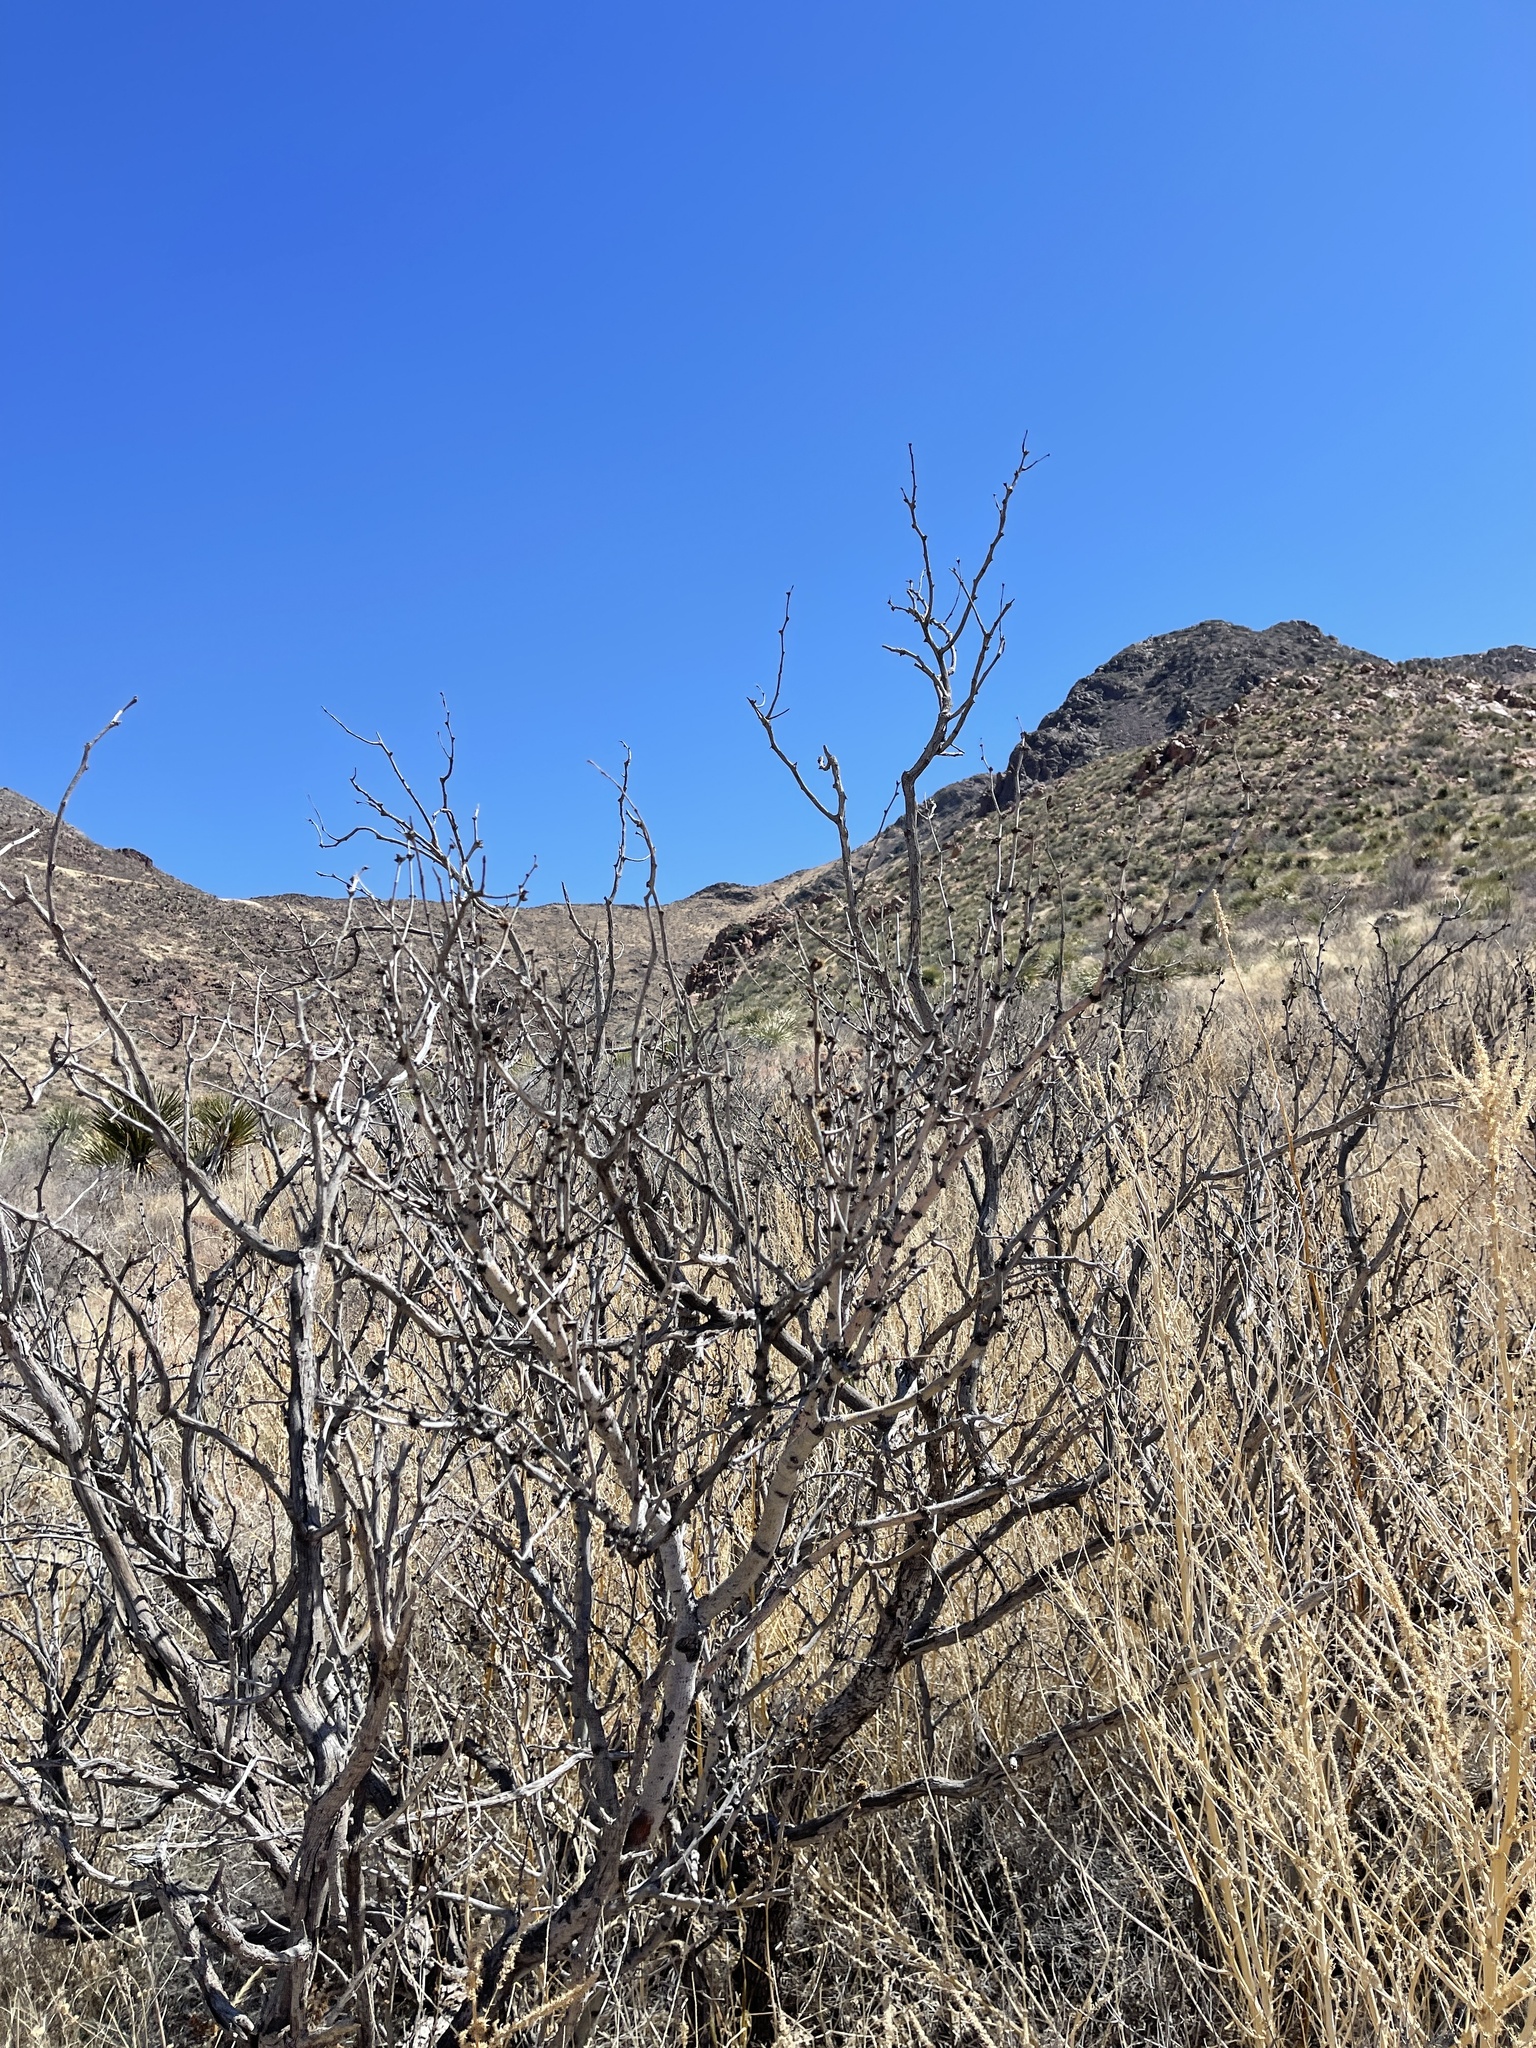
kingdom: Plantae
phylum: Tracheophyta
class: Magnoliopsida
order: Fabales
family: Fabaceae
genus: Prosopis
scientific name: Prosopis glandulosa
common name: Honey mesquite
